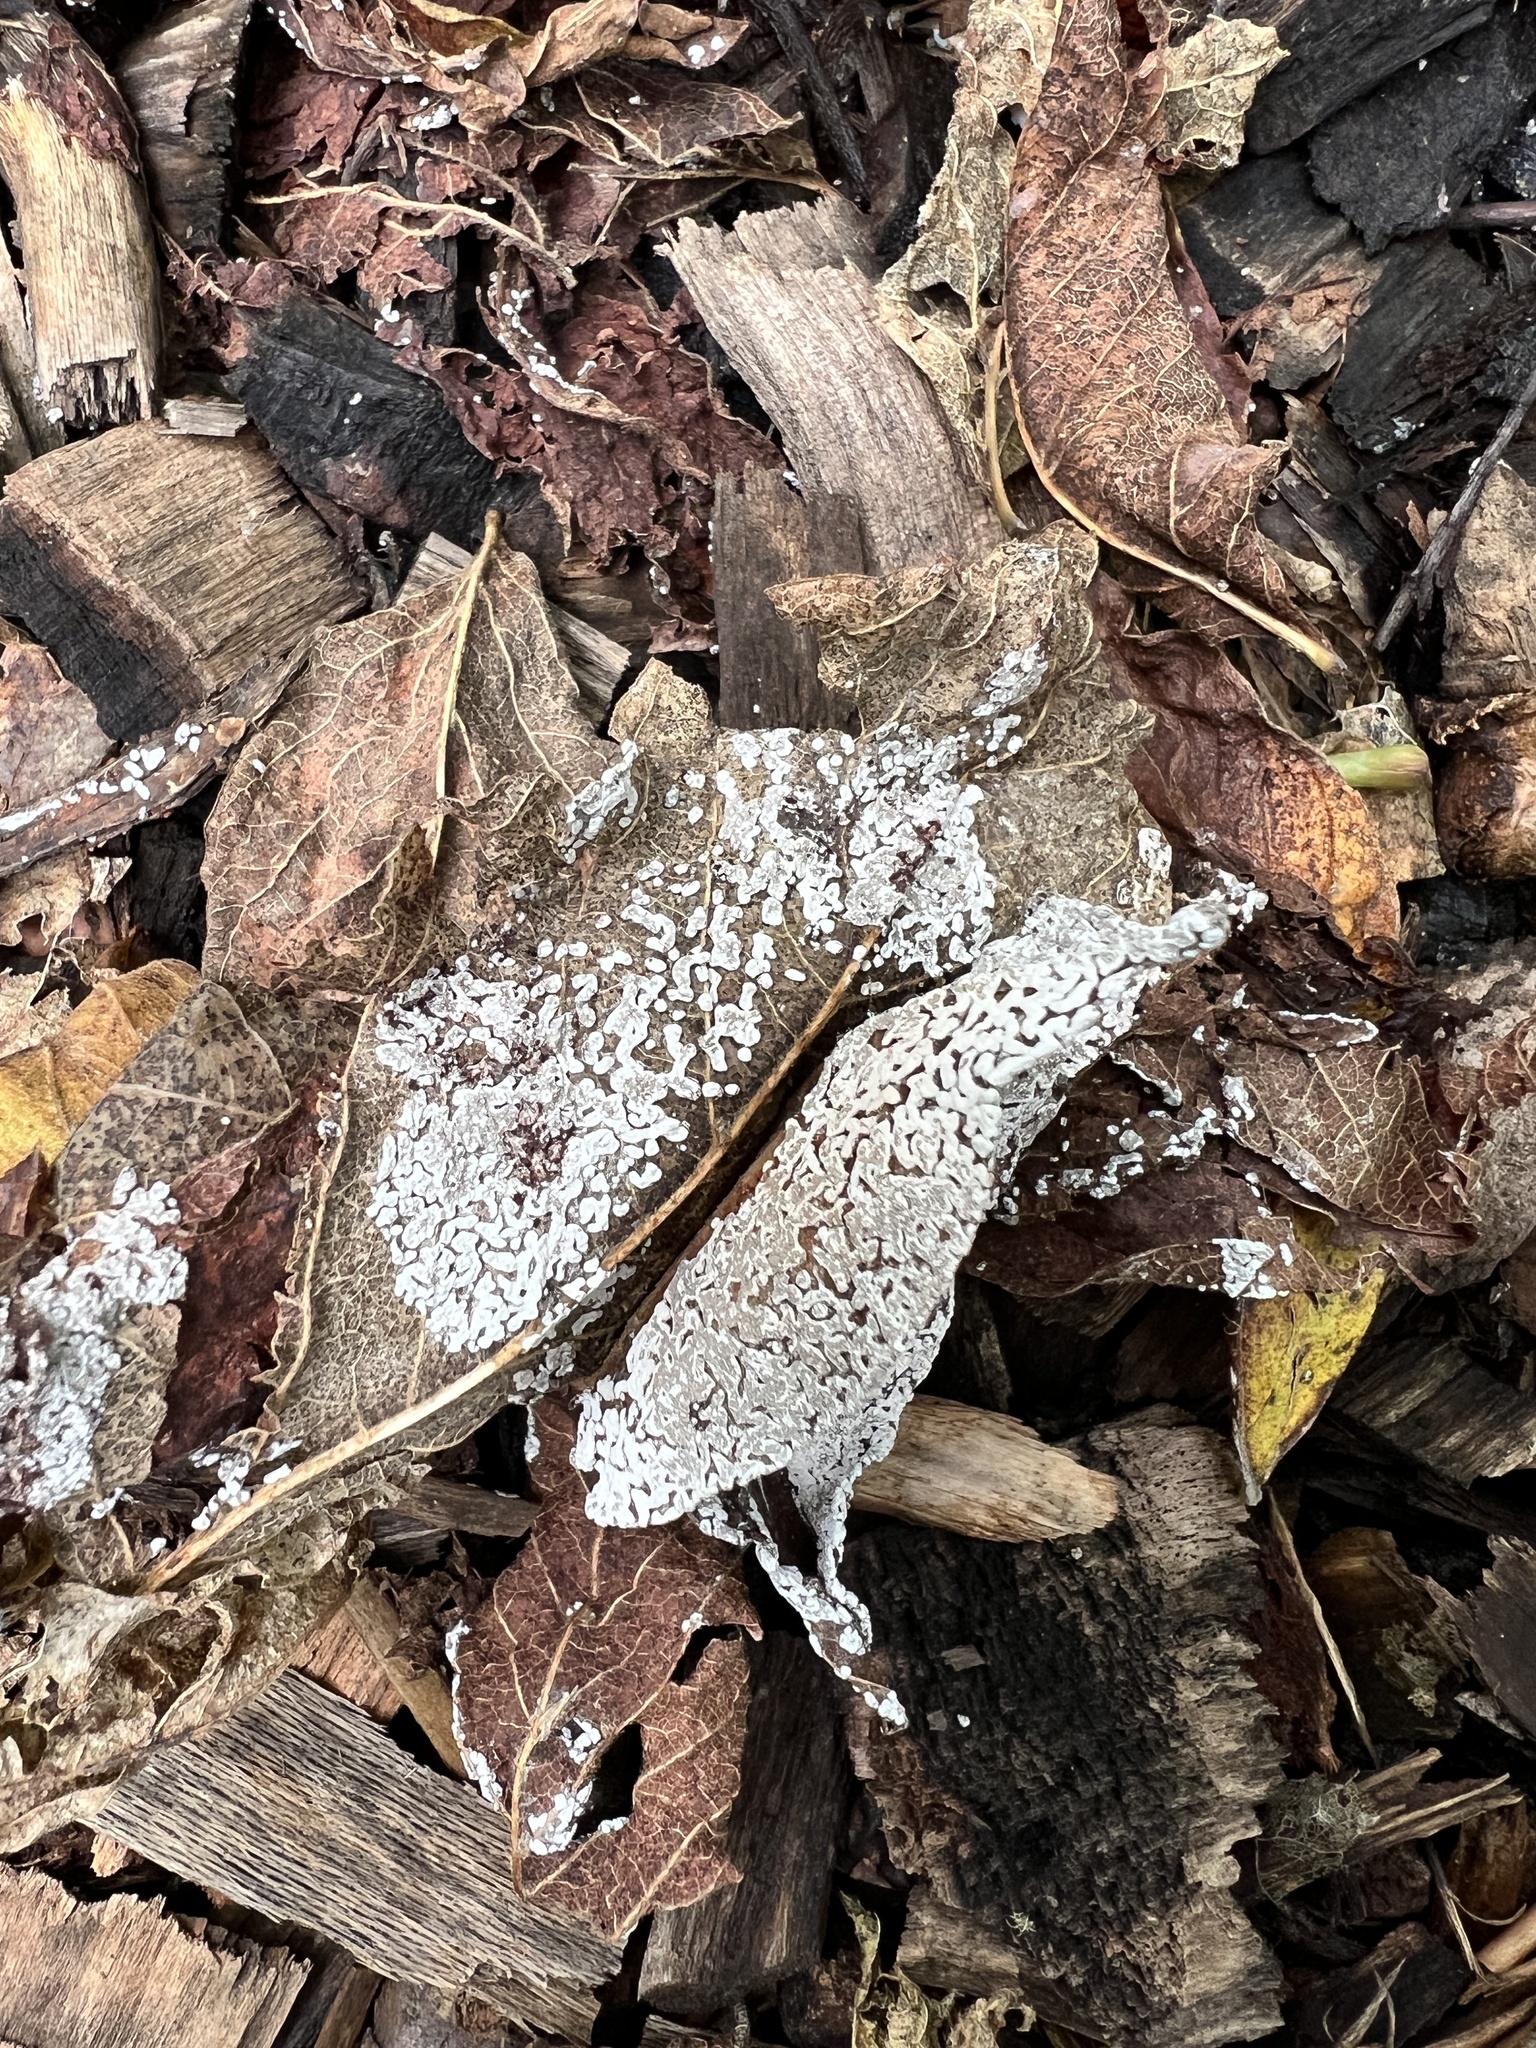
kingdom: Protozoa
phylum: Mycetozoa
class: Myxomycetes
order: Physarales
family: Didymiaceae
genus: Diderma
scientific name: Diderma effusum
